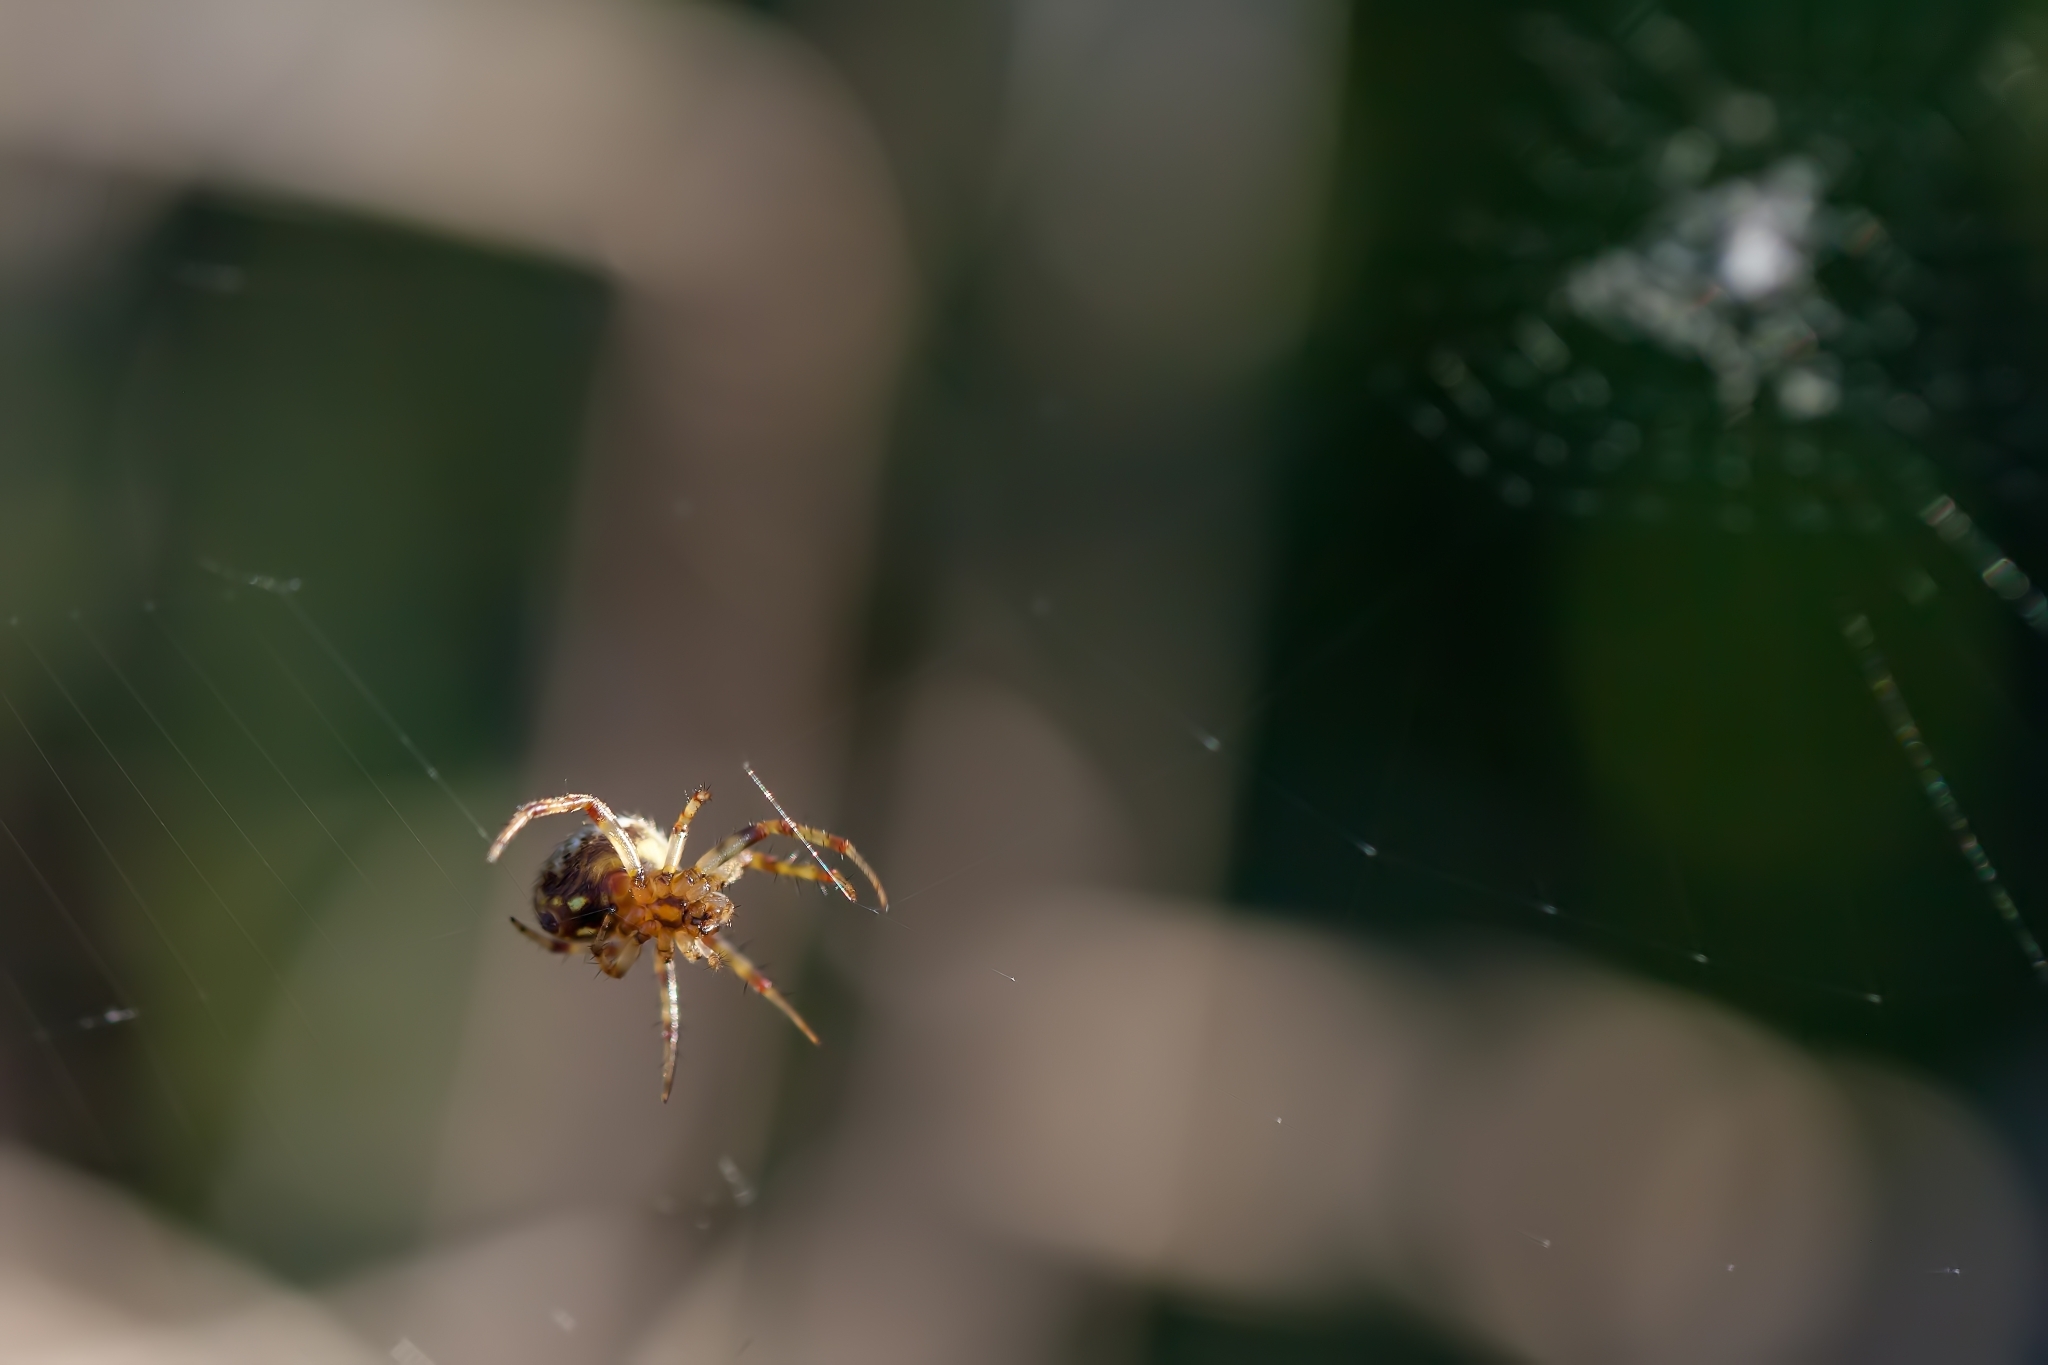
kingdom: Animalia
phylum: Arthropoda
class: Arachnida
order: Araneae
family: Araneidae
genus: Neoscona
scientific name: Neoscona crucifera
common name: Spotted orbweaver
